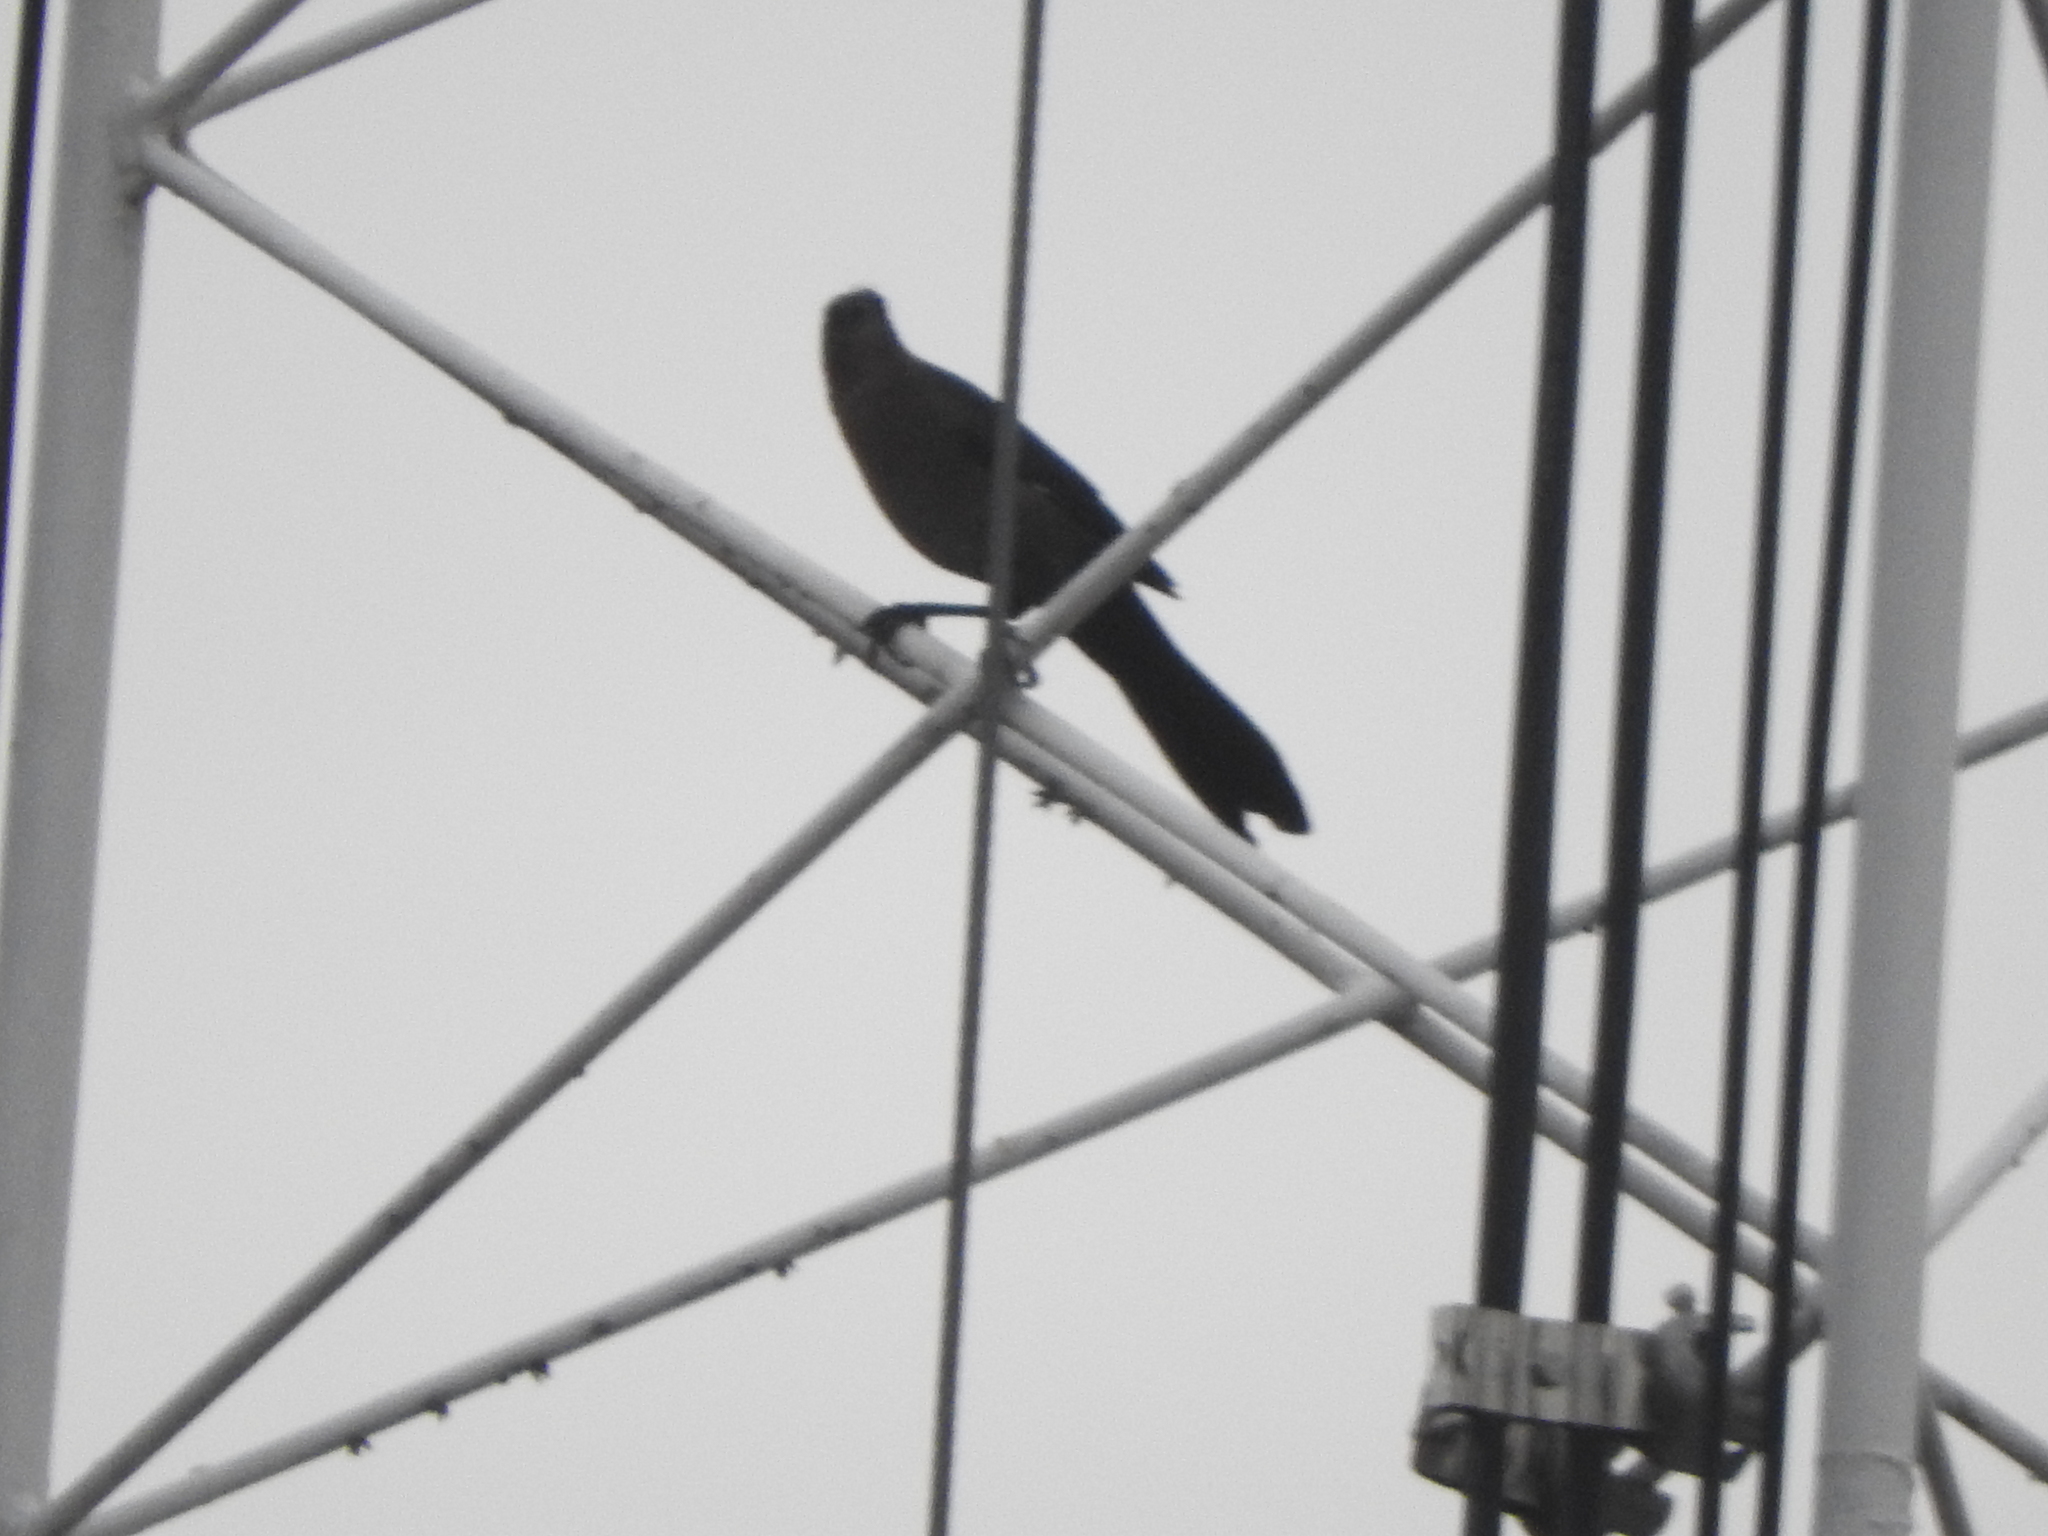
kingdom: Animalia
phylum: Chordata
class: Aves
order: Passeriformes
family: Icteridae
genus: Quiscalus
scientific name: Quiscalus mexicanus
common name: Great-tailed grackle
